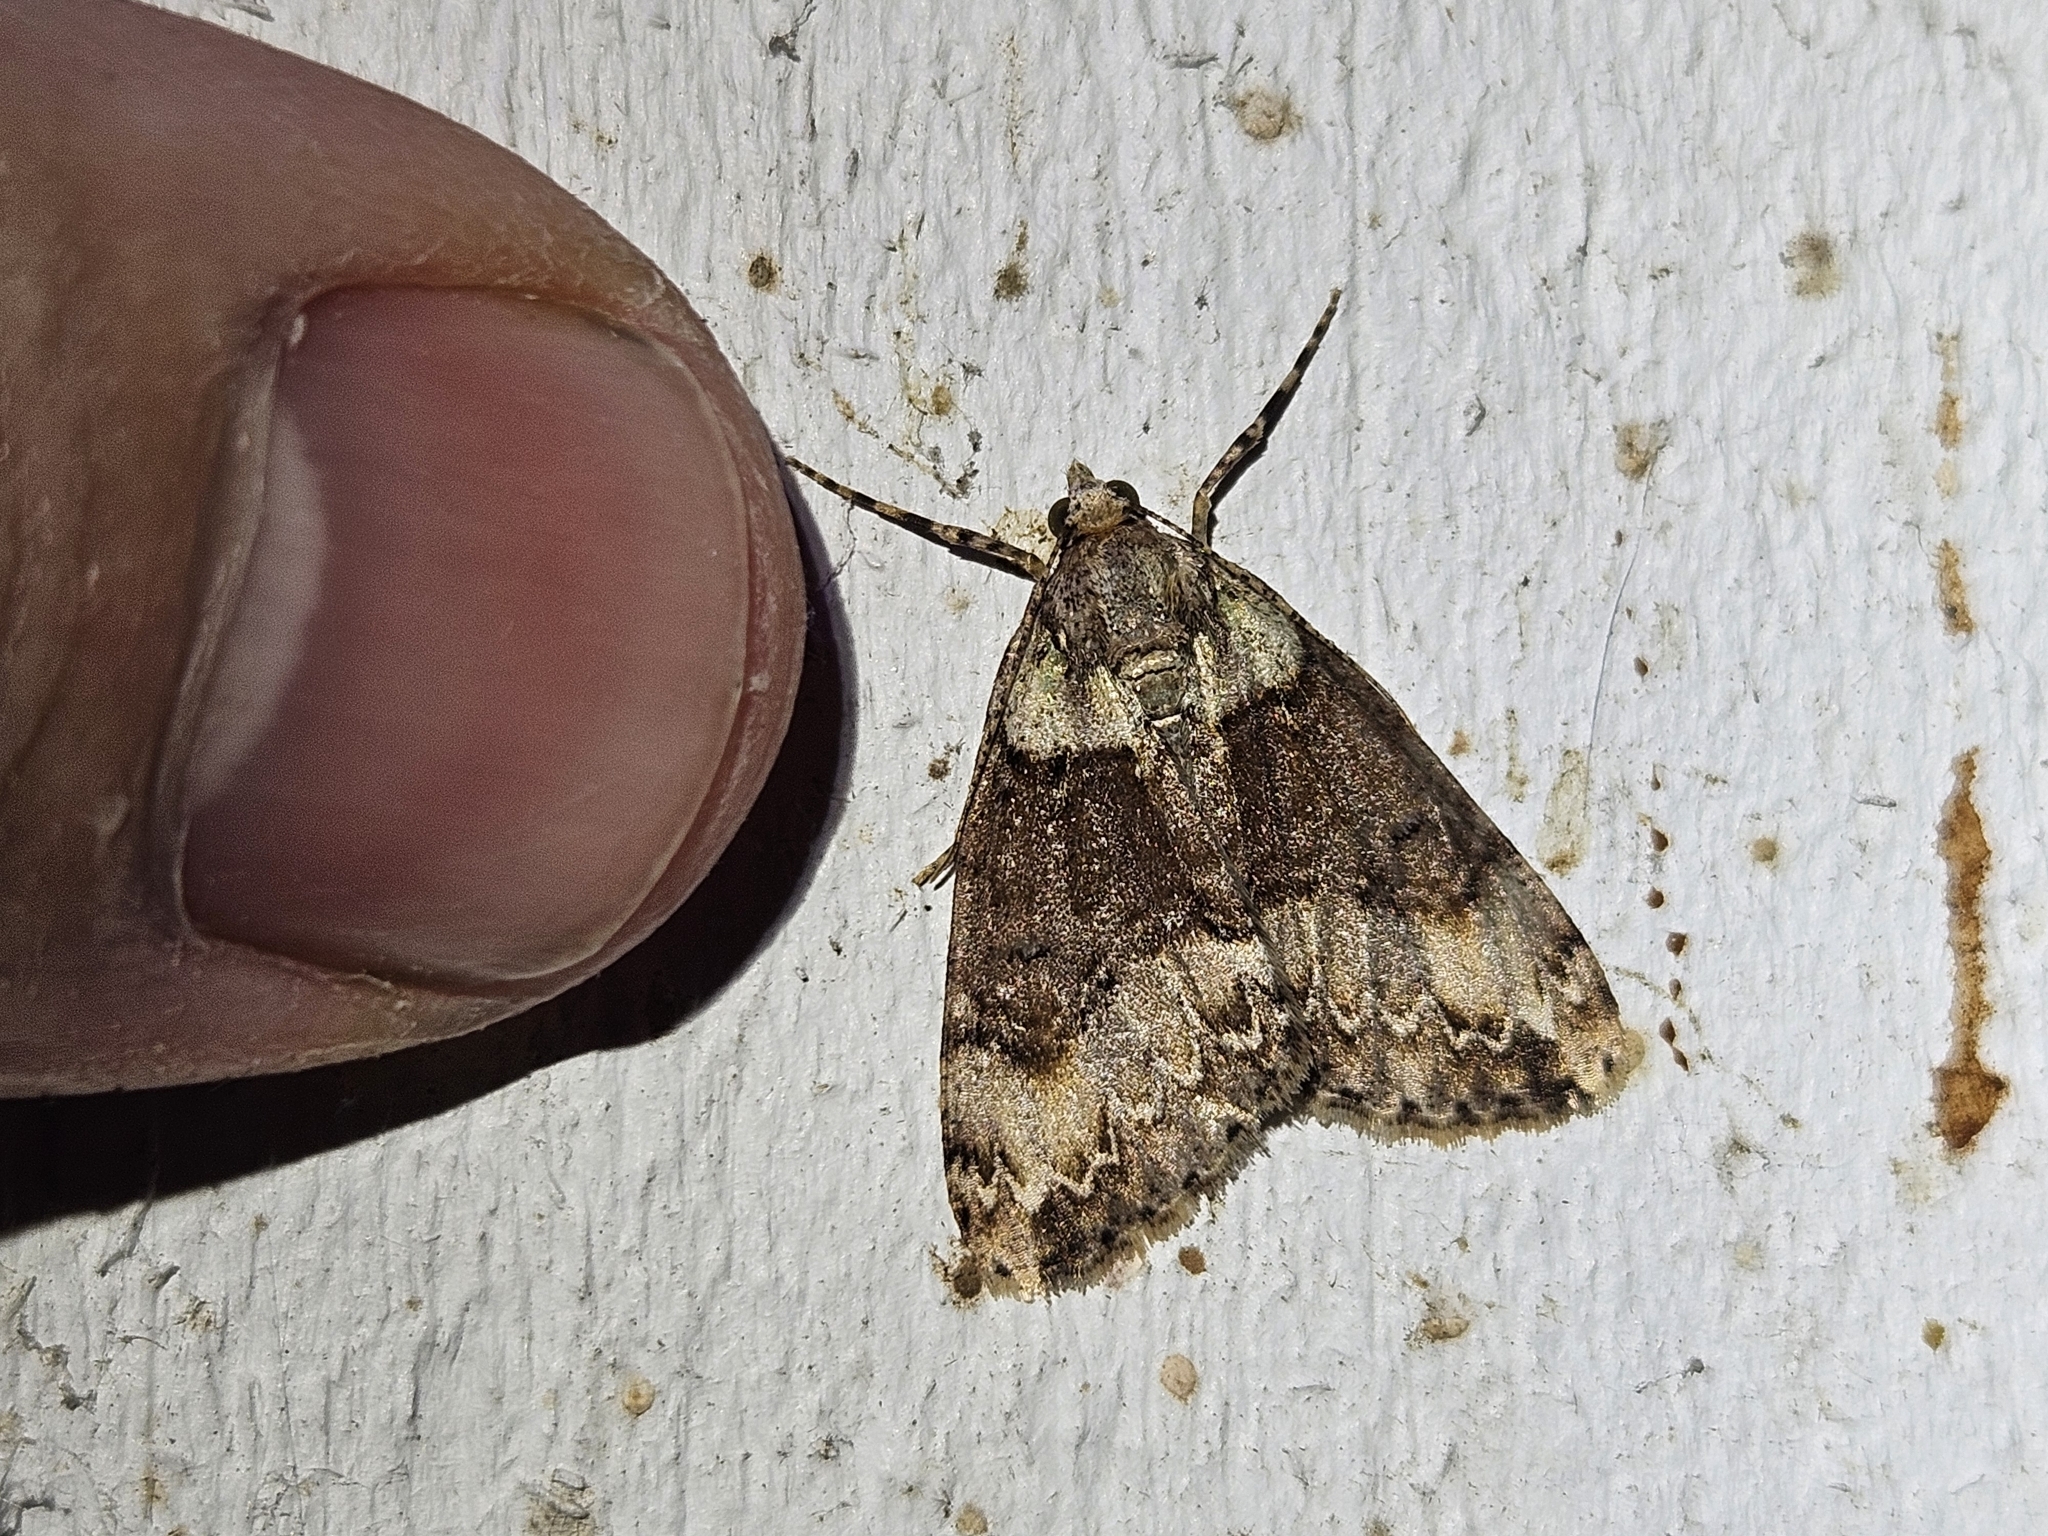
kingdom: Animalia
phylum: Arthropoda
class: Insecta
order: Lepidoptera
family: Geometridae
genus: Pseudocoremia
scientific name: Pseudocoremia suavis
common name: Common forest looper
